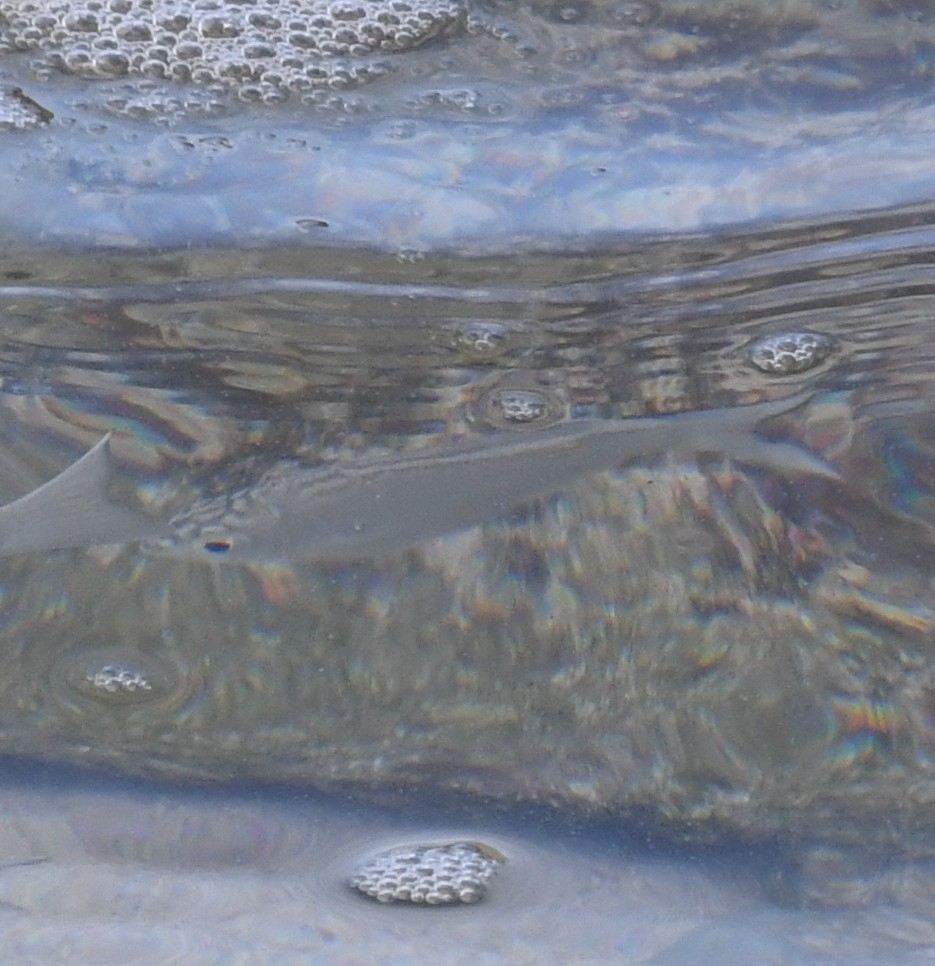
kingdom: Animalia
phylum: Chordata
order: Perciformes
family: Kuhliidae
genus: Kuhlia
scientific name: Kuhlia sandvicensis
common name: Hawaiian flagtail
